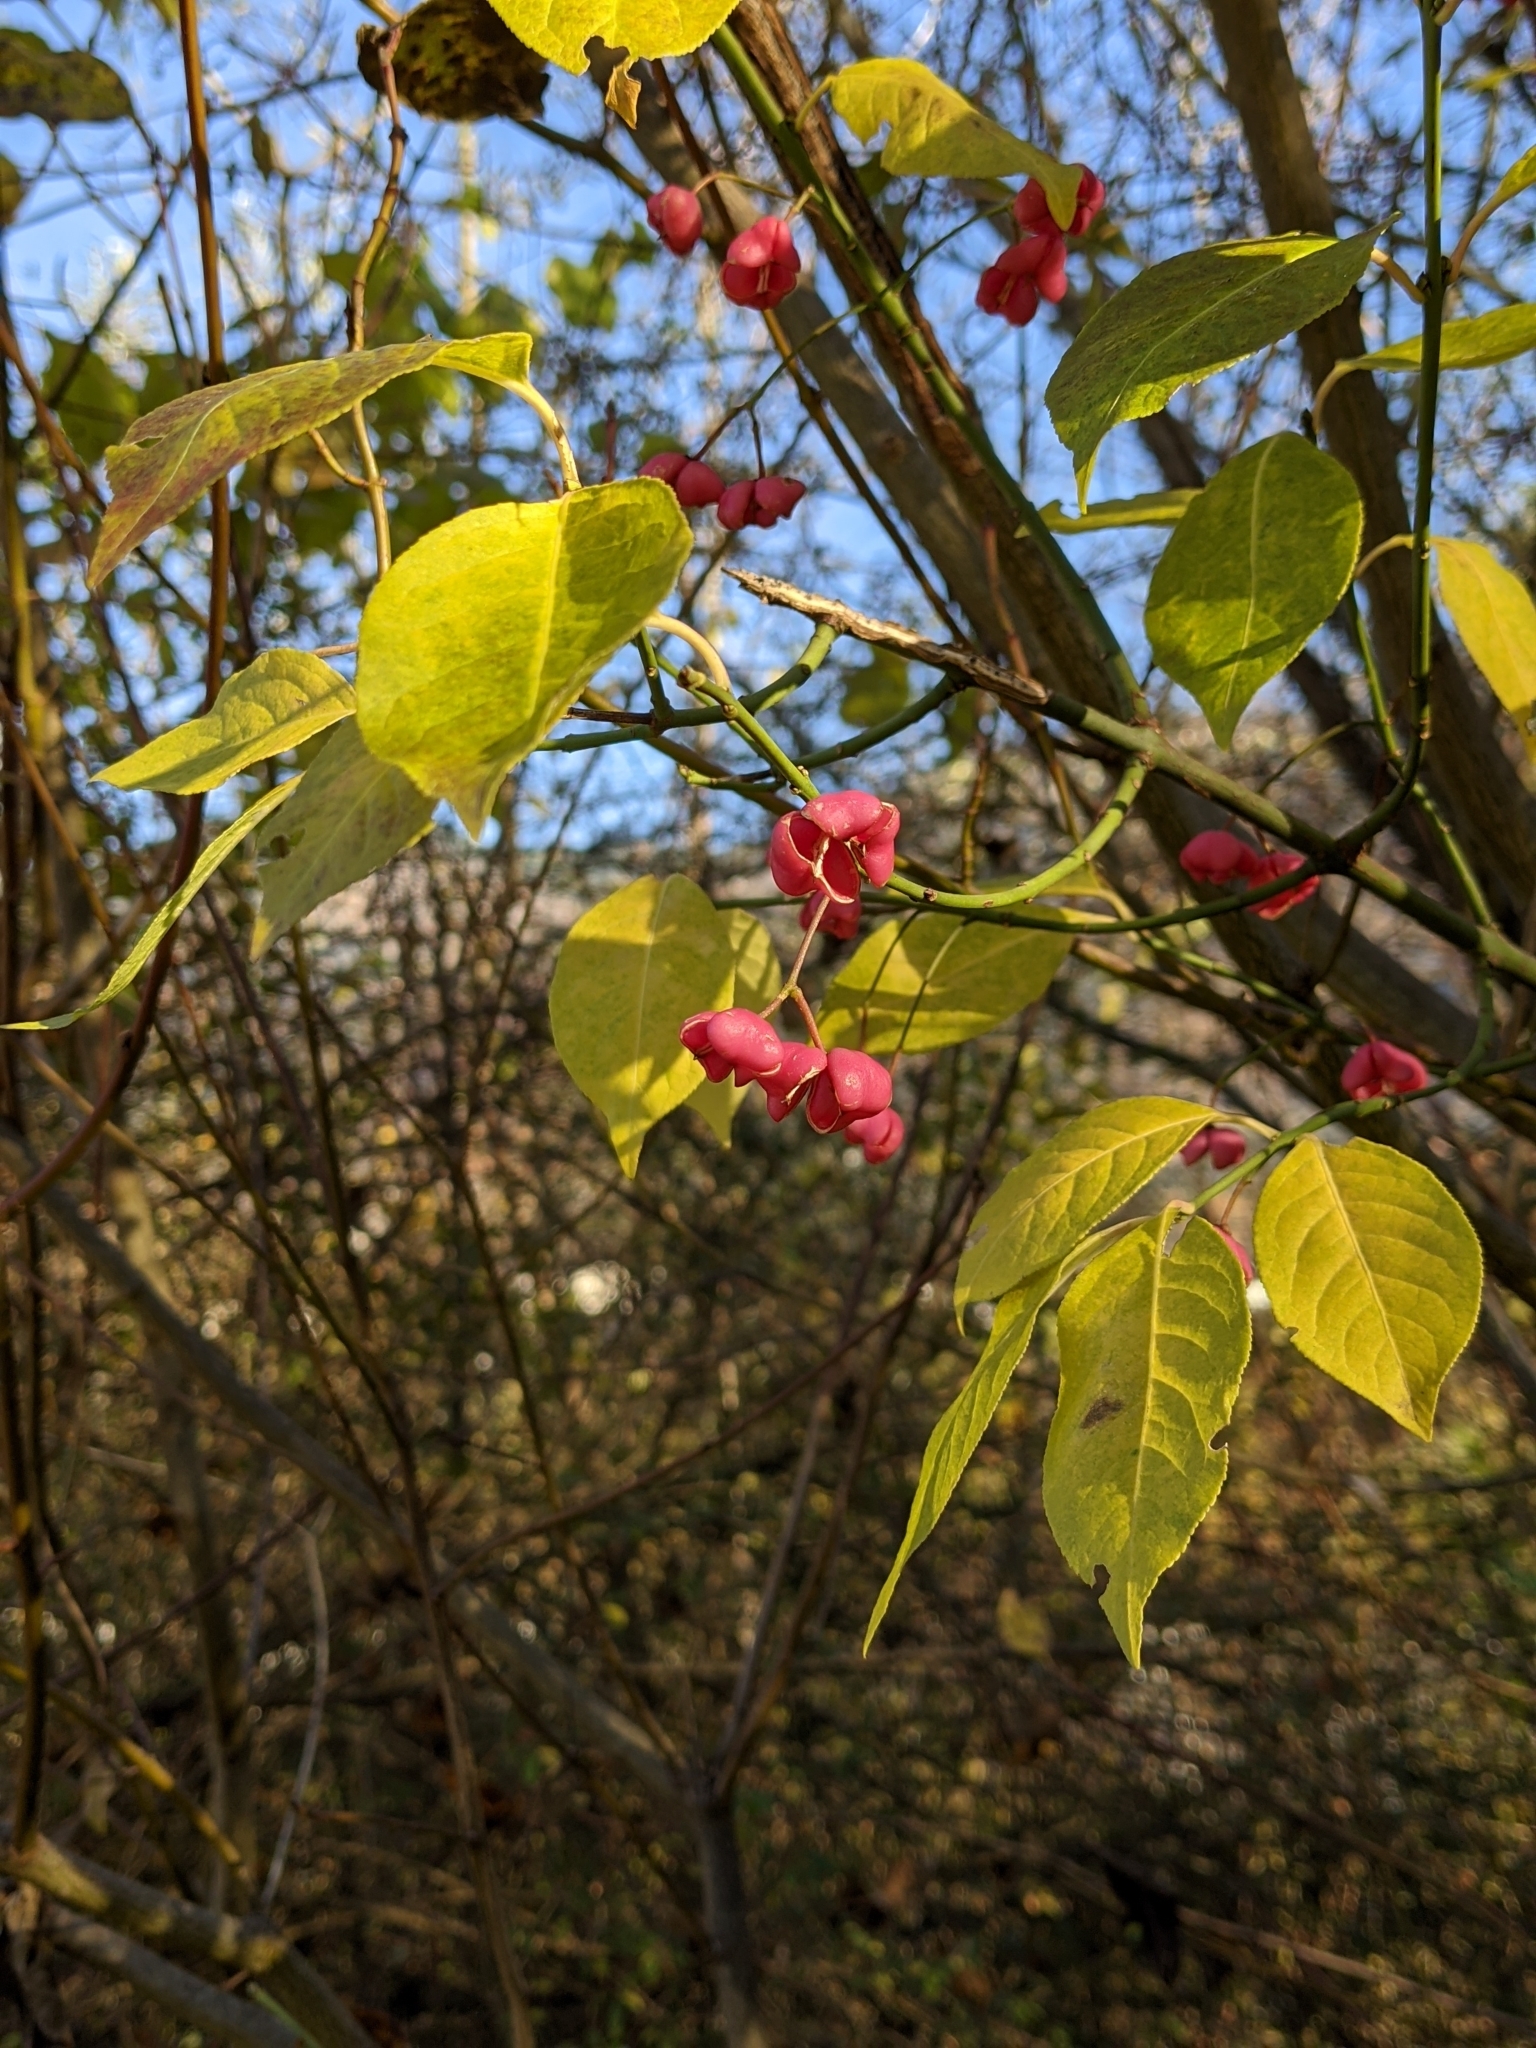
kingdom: Plantae
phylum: Tracheophyta
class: Magnoliopsida
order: Celastrales
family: Celastraceae
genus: Euonymus
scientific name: Euonymus europaeus
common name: Spindle
